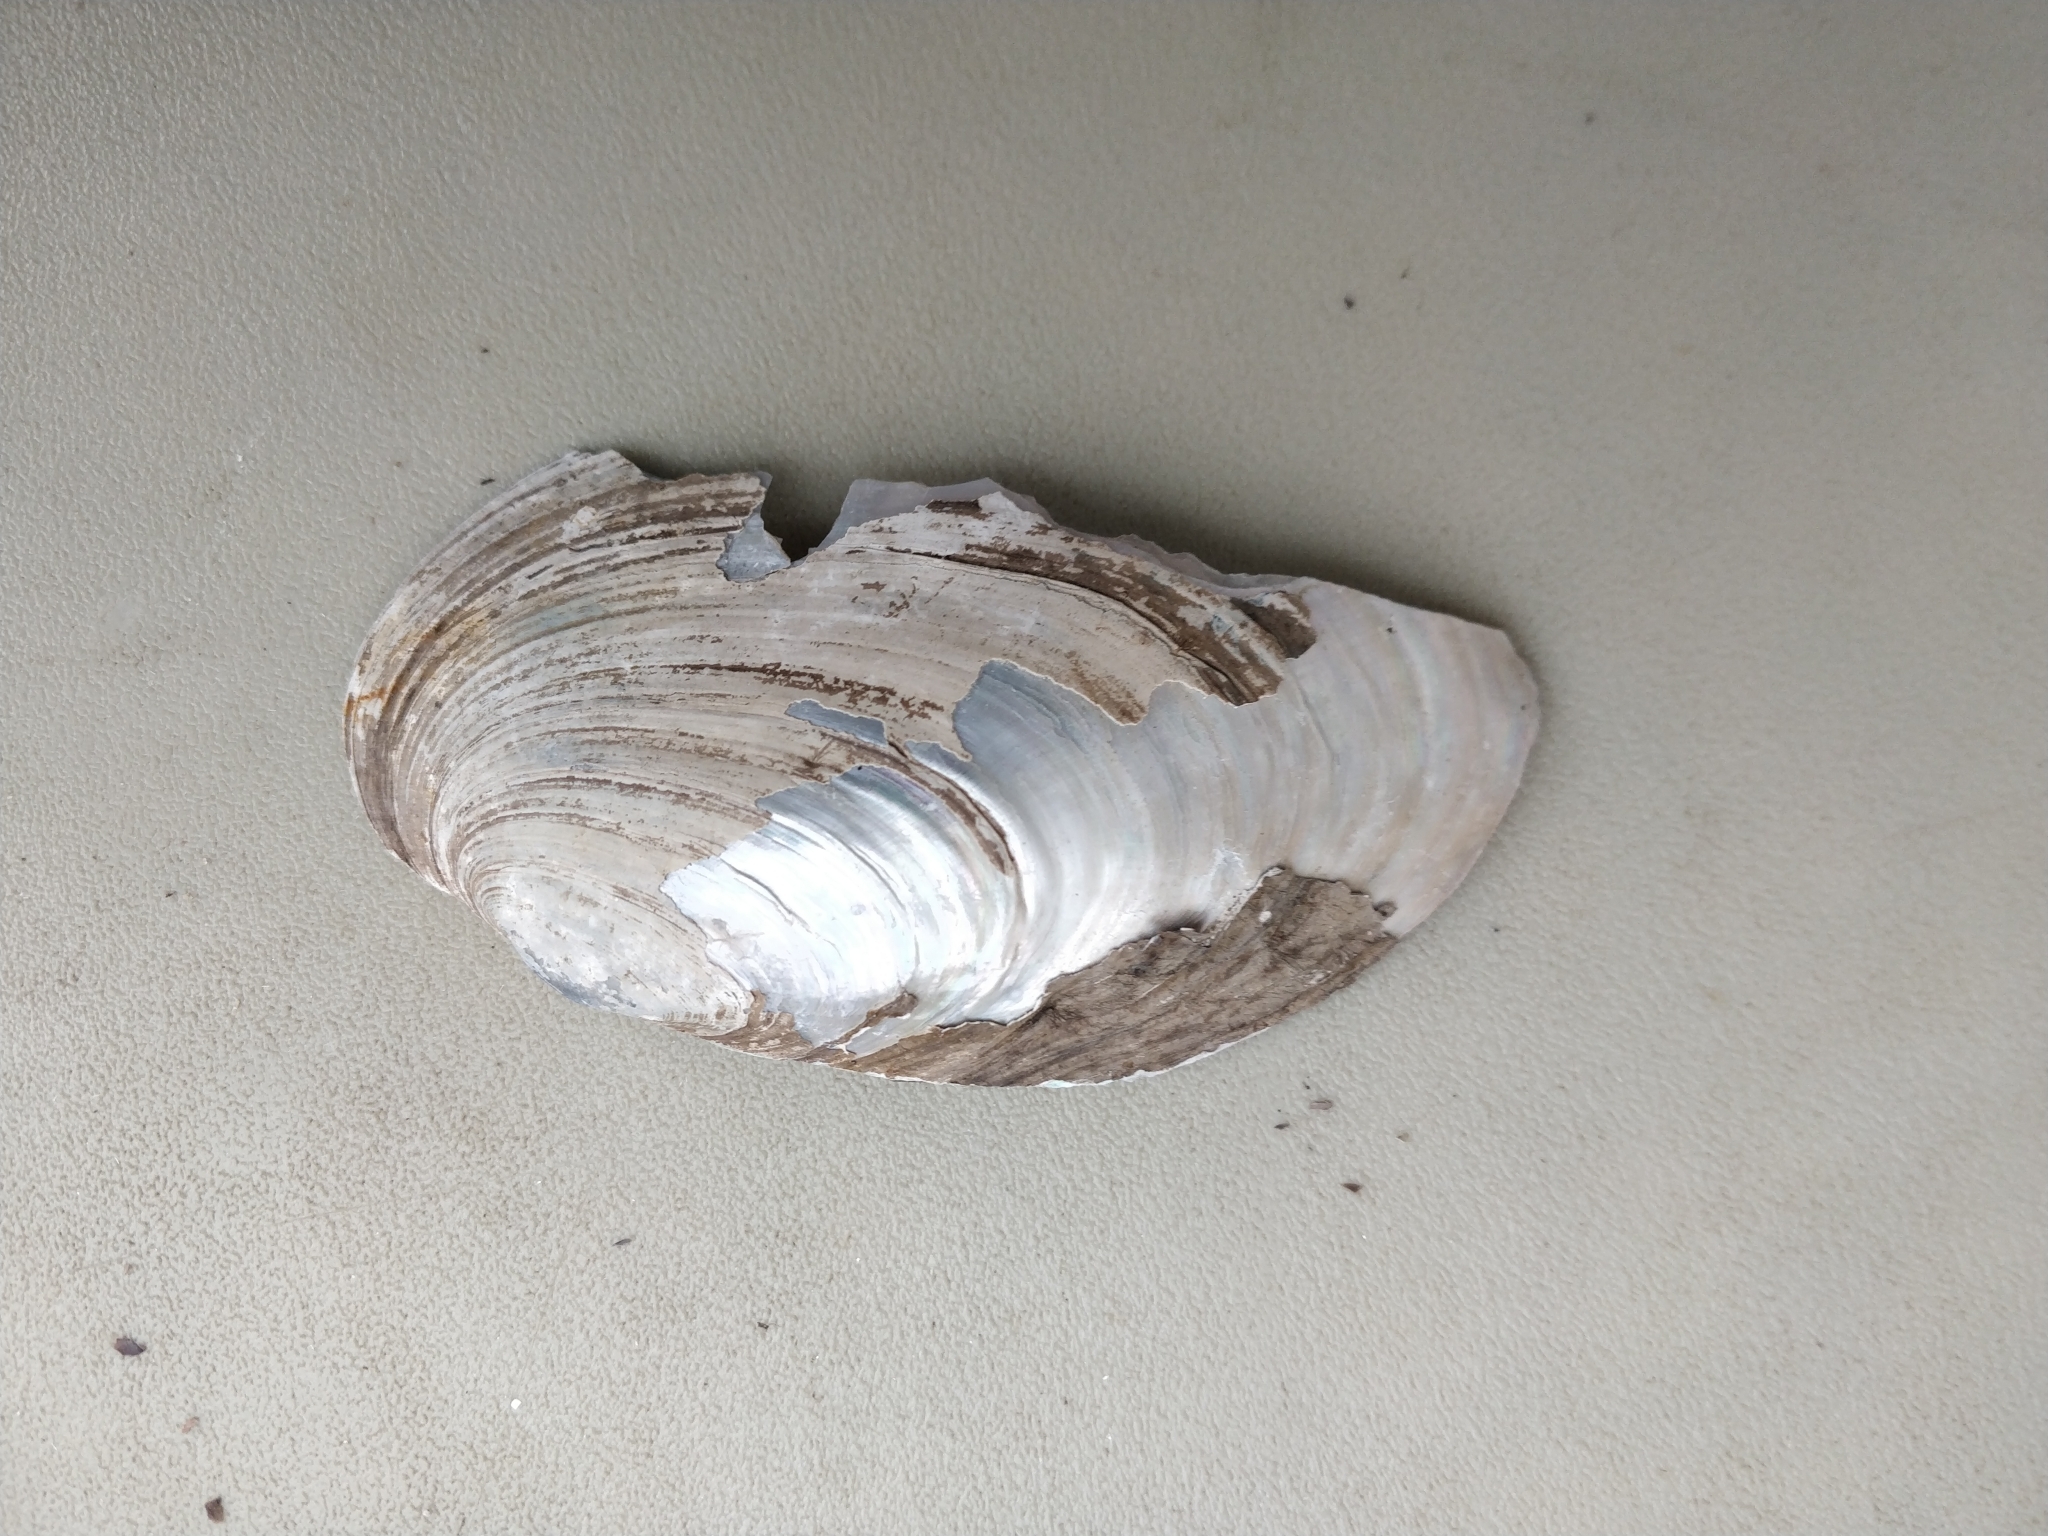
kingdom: Animalia
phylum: Mollusca
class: Bivalvia
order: Unionida
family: Unionidae
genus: Potamilus
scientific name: Potamilus fragilis
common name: Fragile papershell
